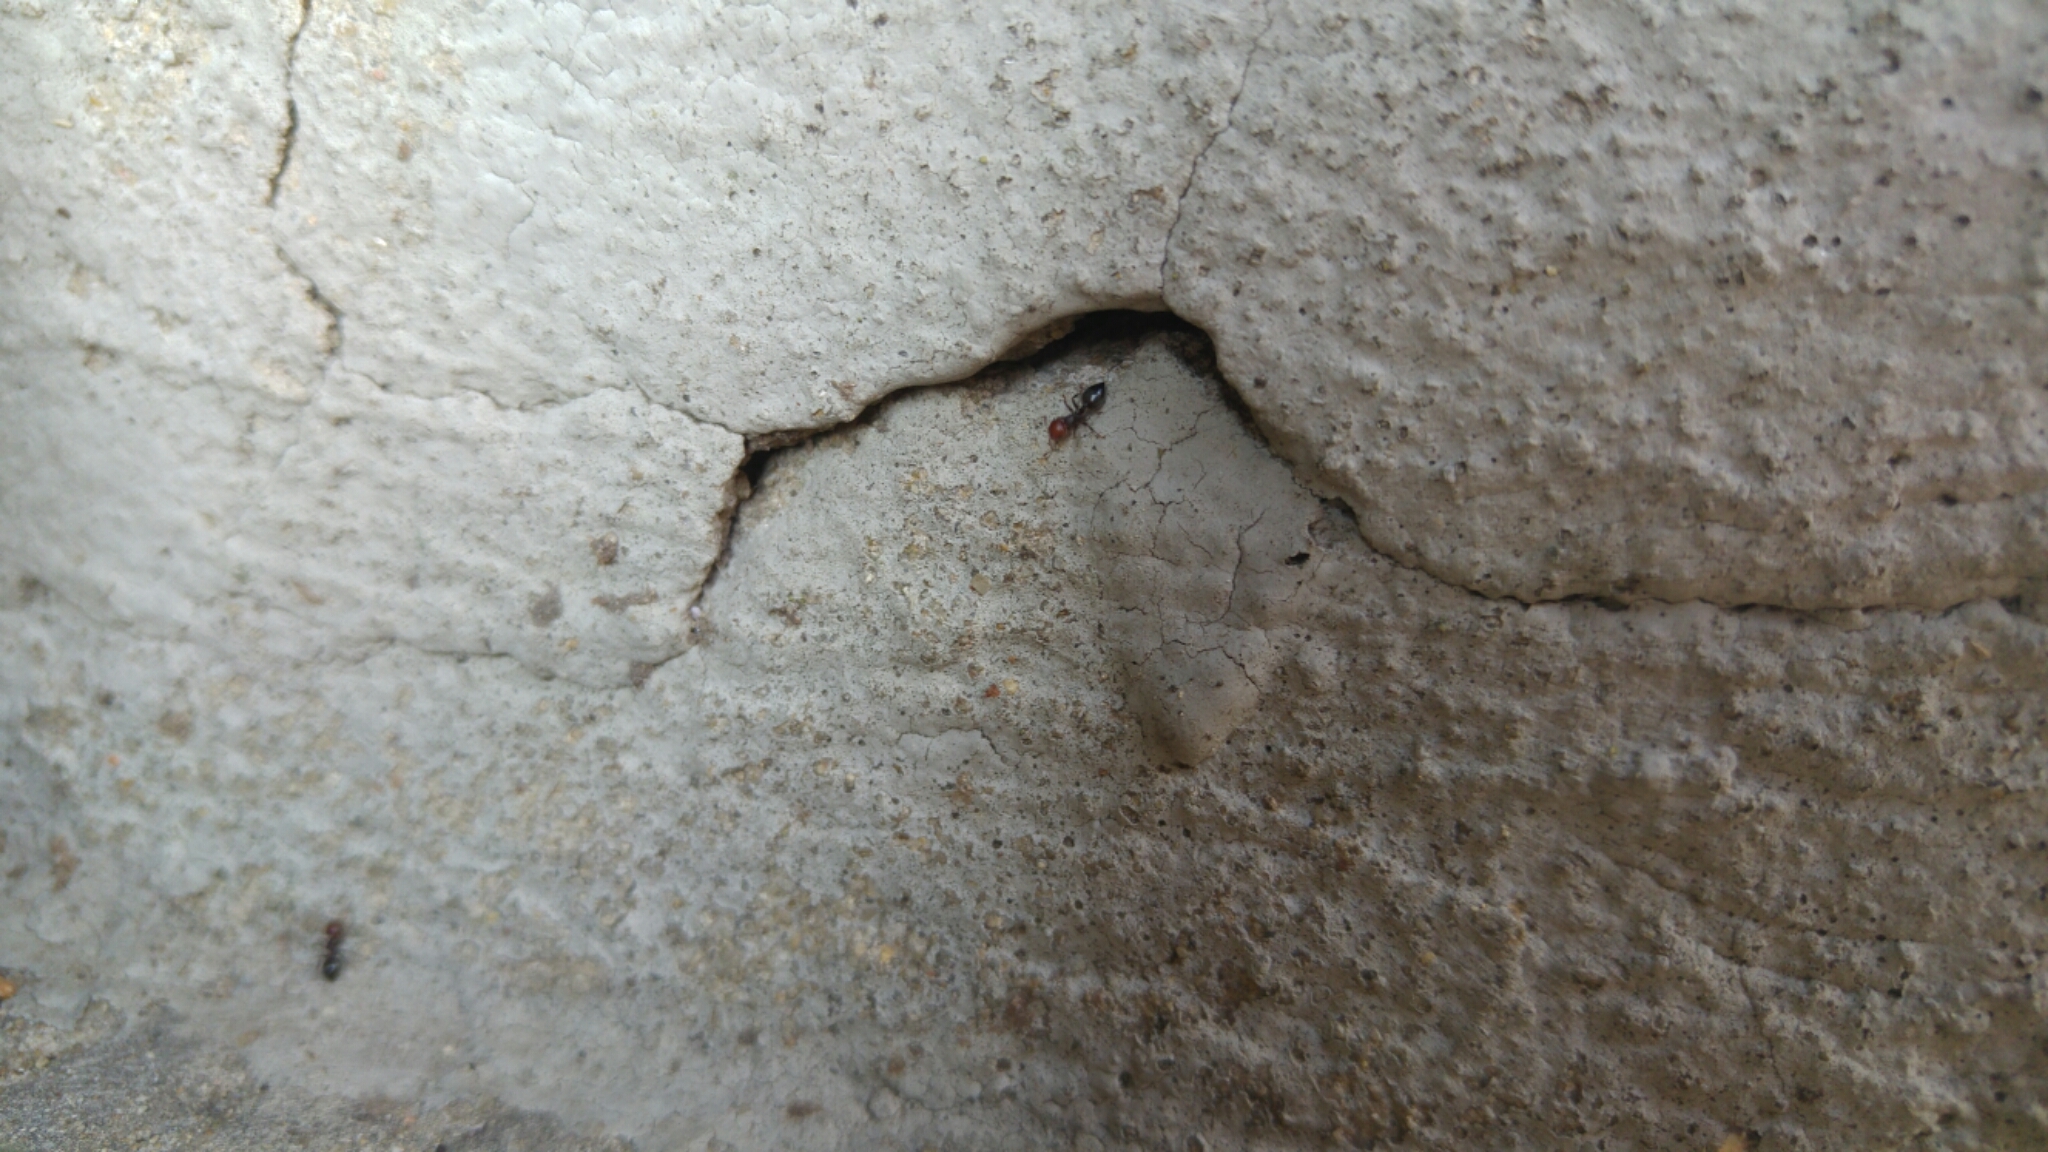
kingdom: Animalia
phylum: Arthropoda
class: Insecta
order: Hymenoptera
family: Formicidae
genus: Crematogaster
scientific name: Crematogaster scutellaris
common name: Fourmi du liège
